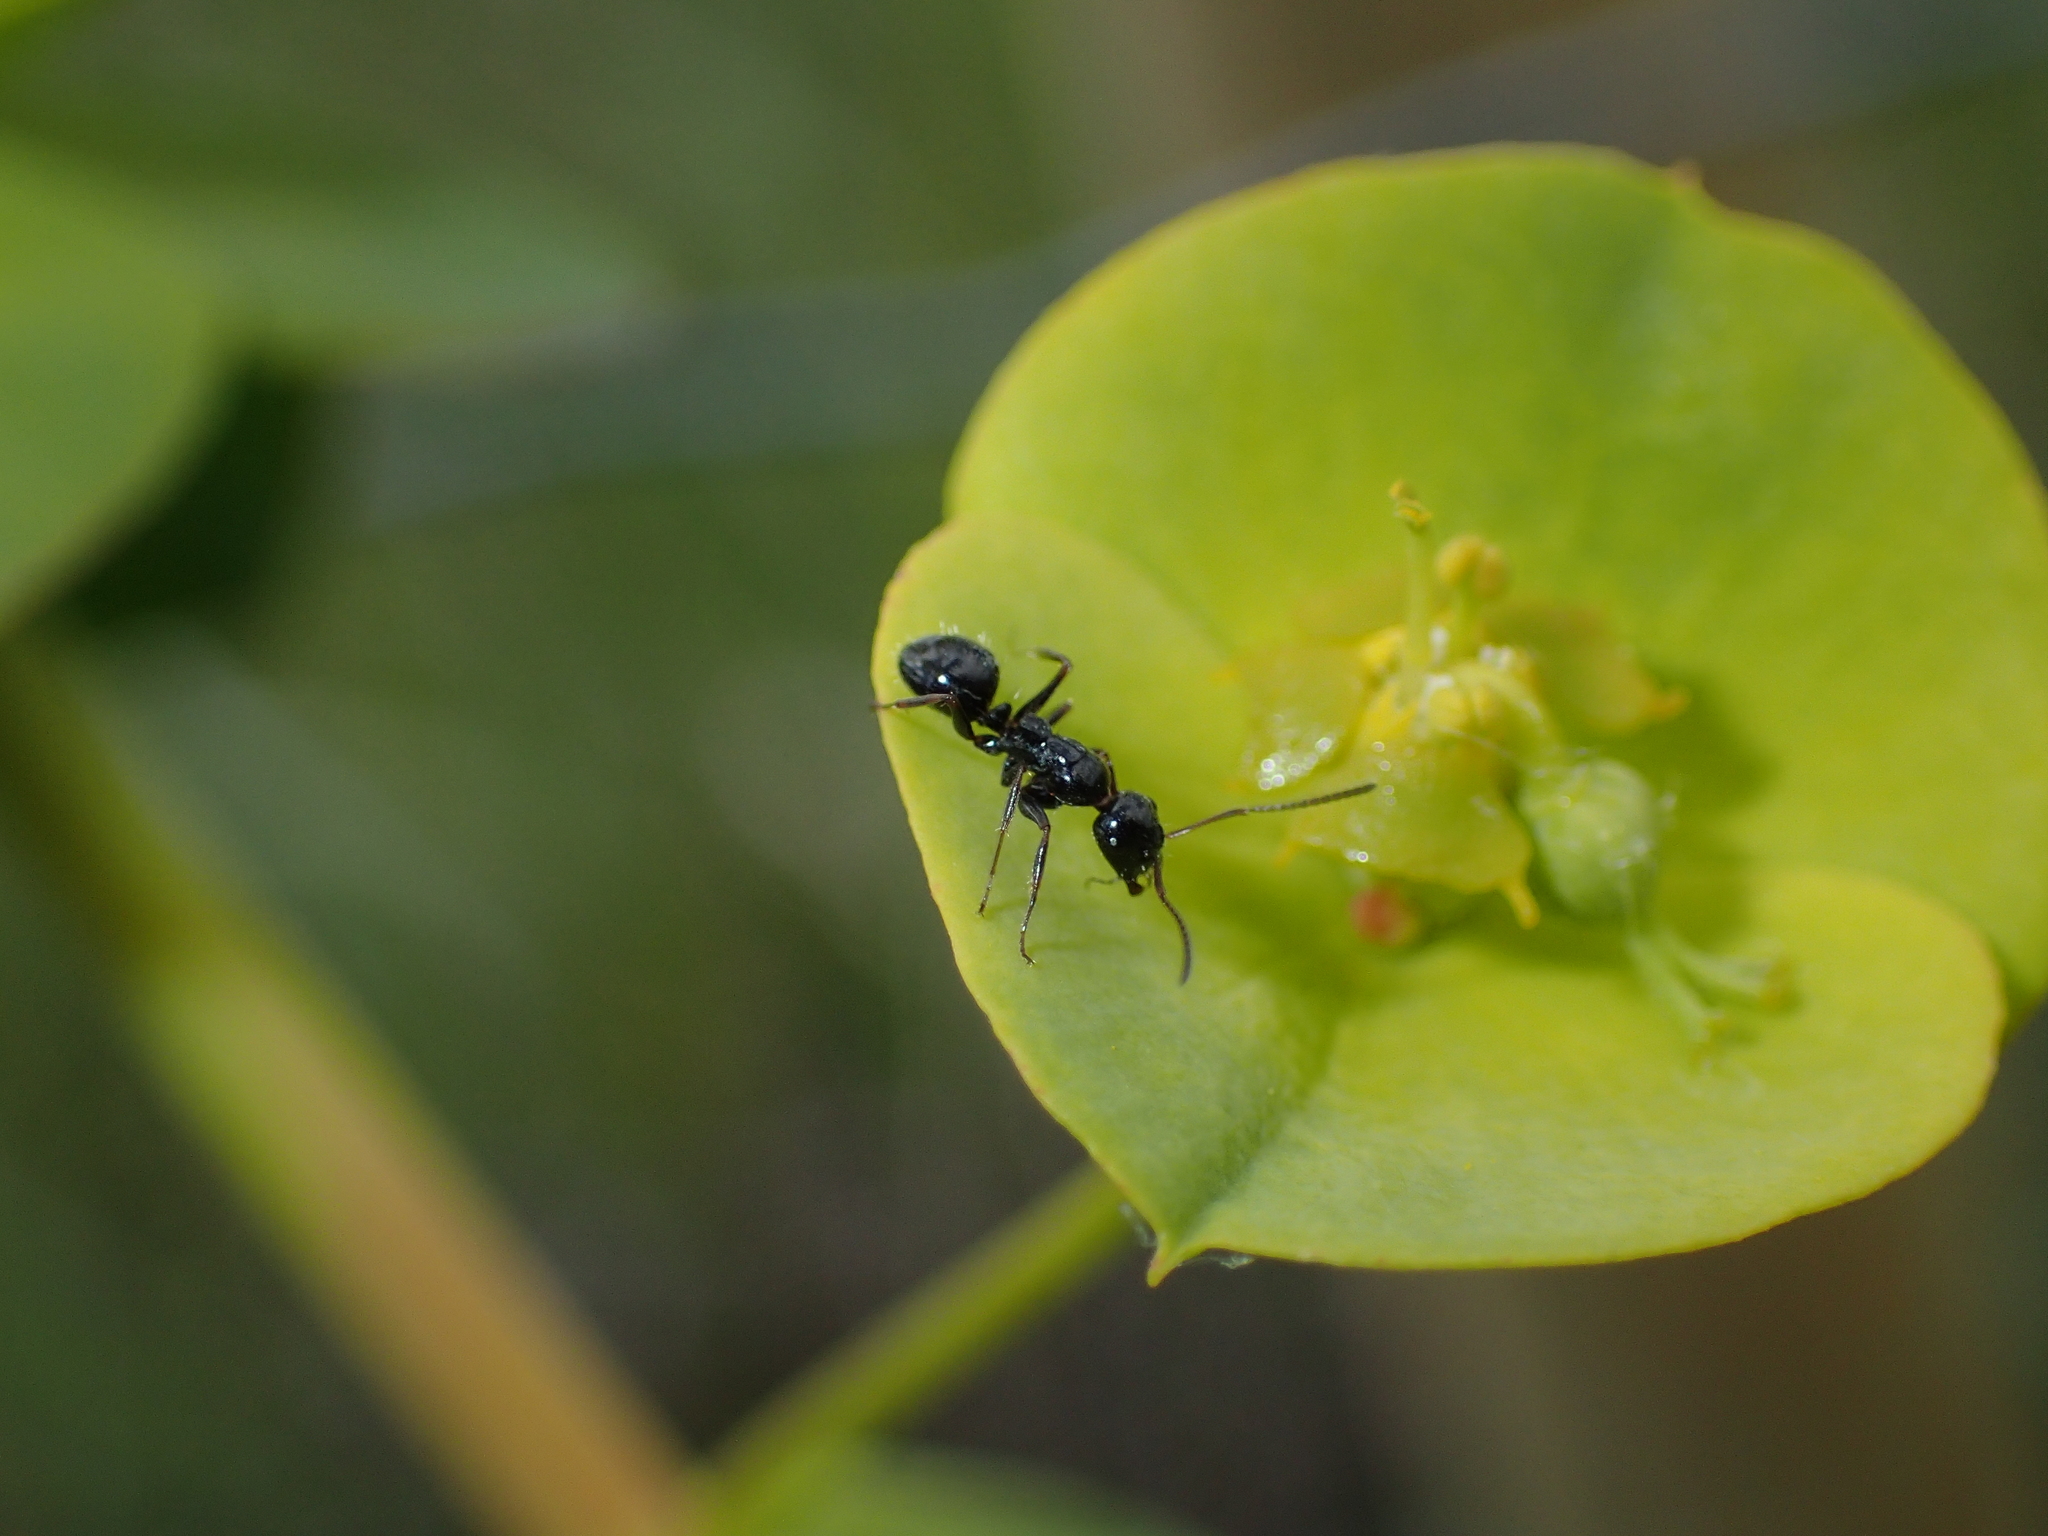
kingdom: Animalia
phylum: Arthropoda
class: Insecta
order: Hymenoptera
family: Formicidae
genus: Camponotus
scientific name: Camponotus piceus
